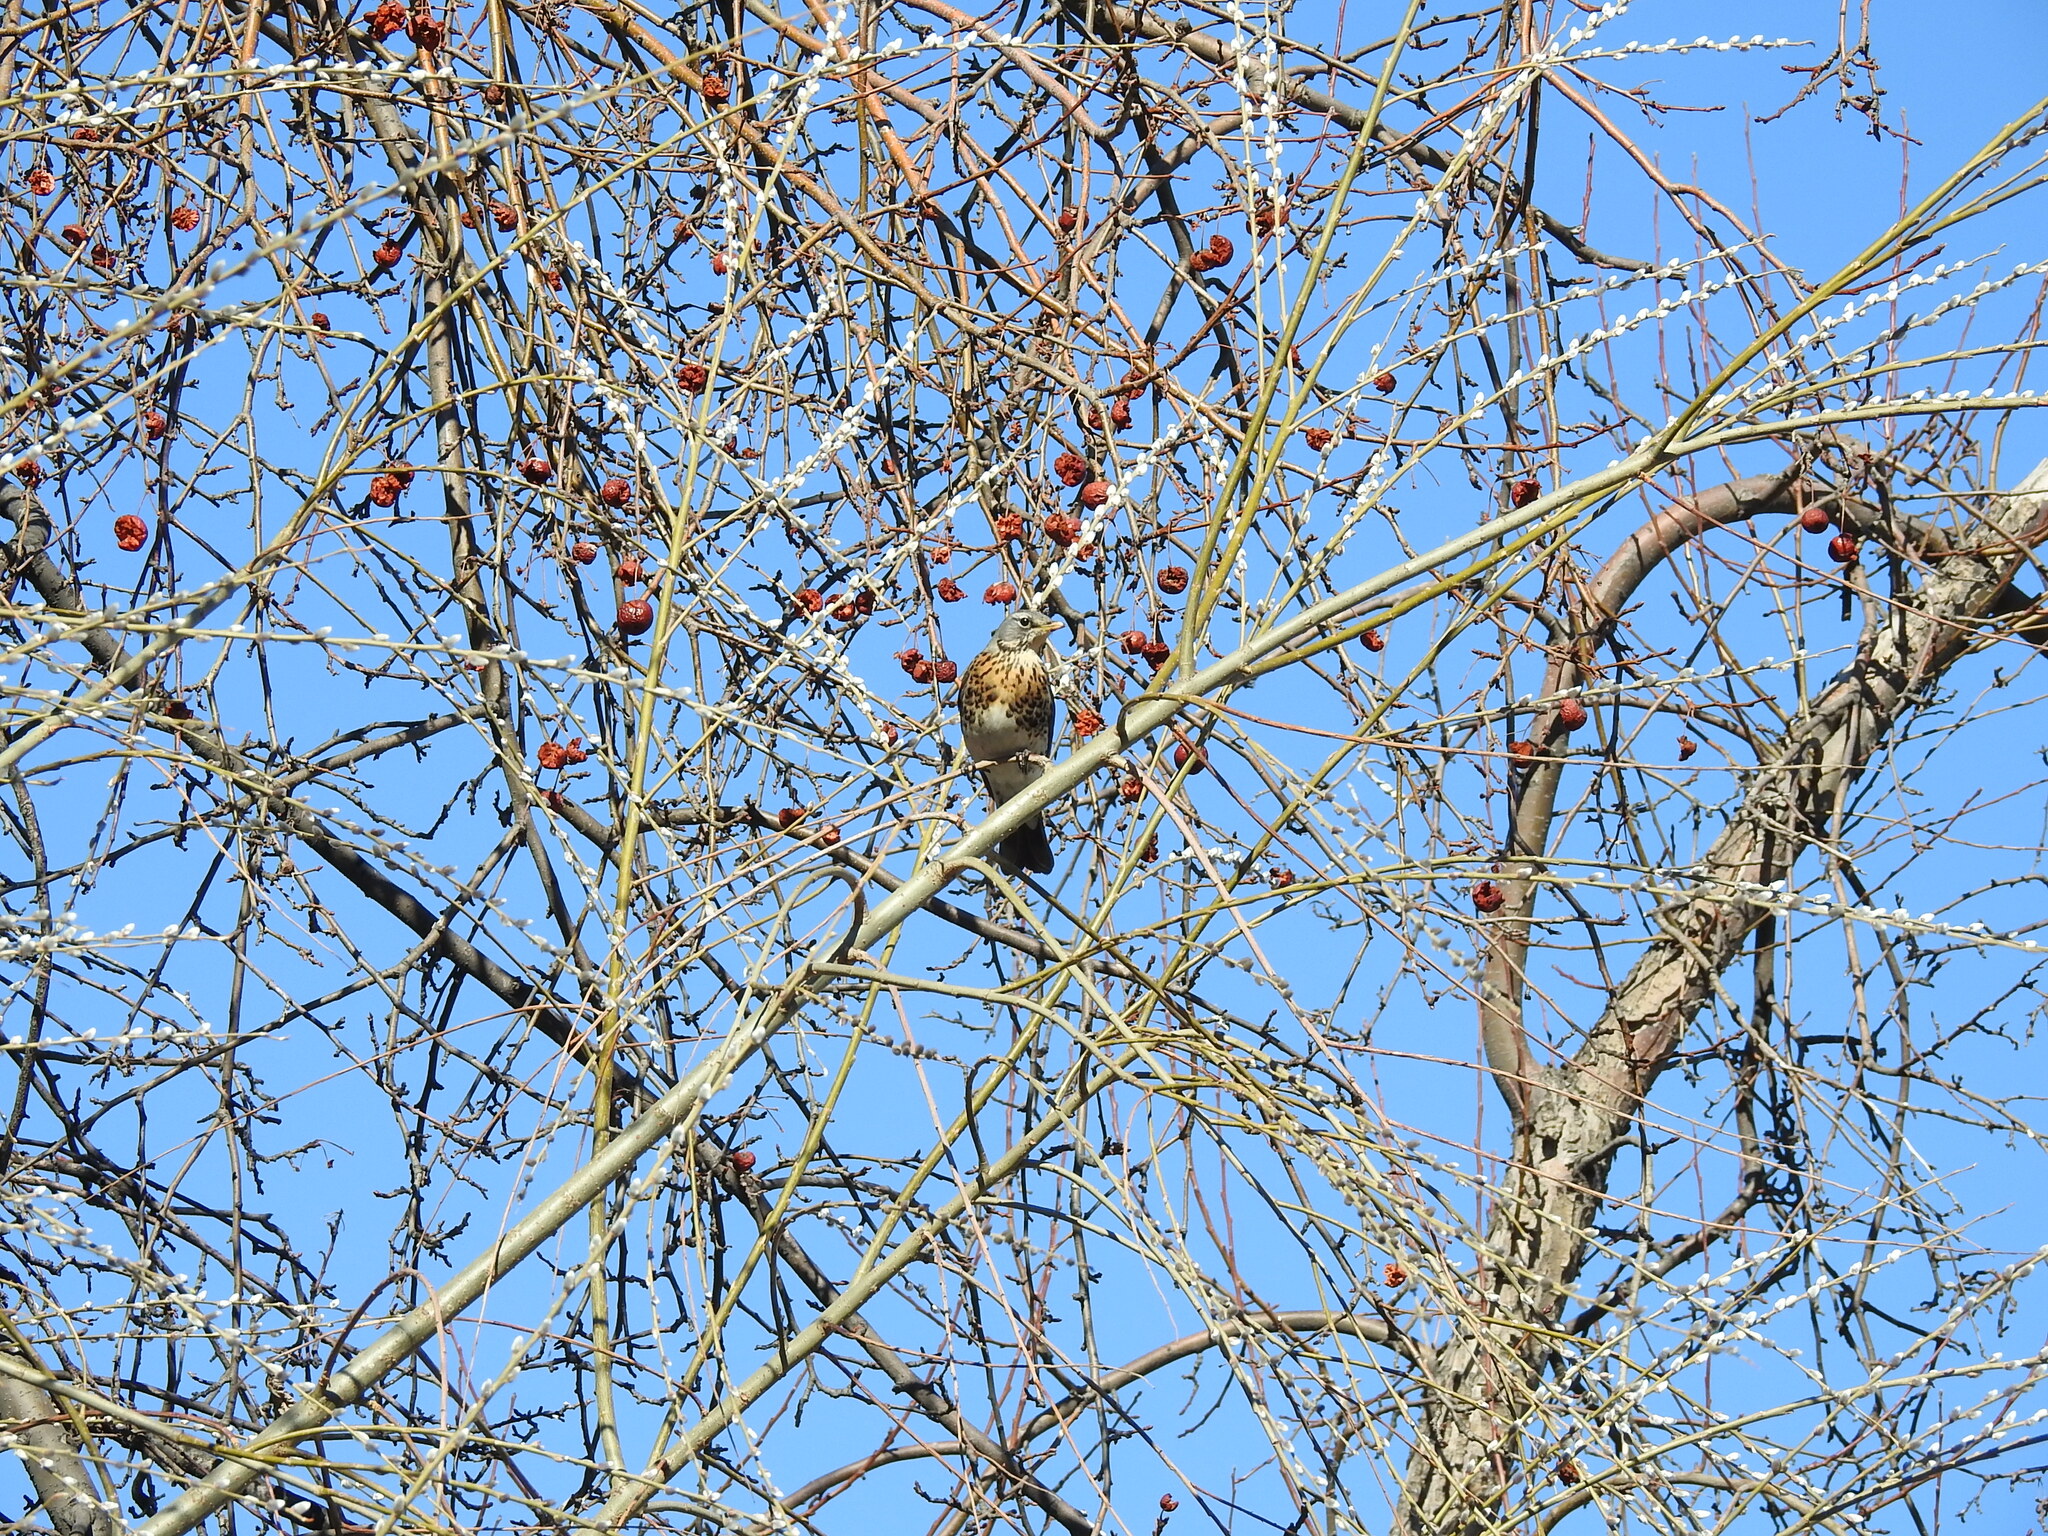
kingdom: Animalia
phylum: Chordata
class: Aves
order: Passeriformes
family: Turdidae
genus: Turdus
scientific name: Turdus pilaris
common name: Fieldfare
